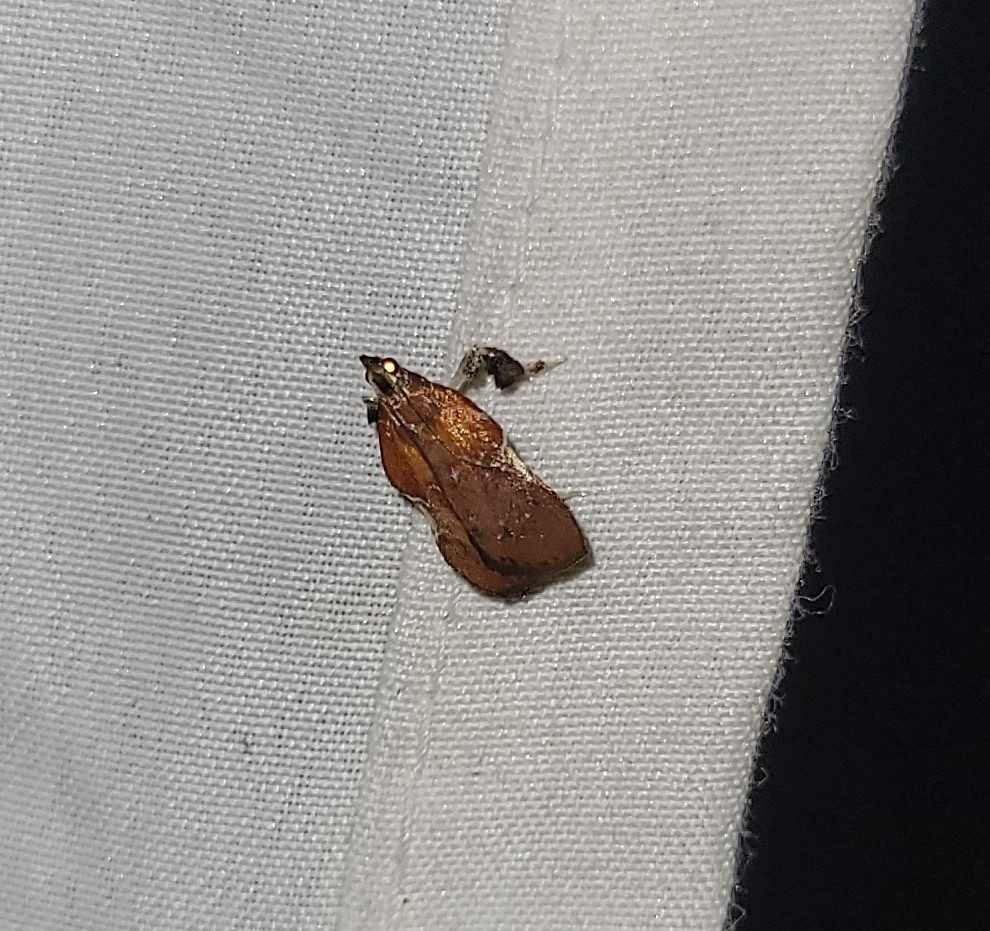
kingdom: Animalia
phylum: Arthropoda
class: Insecta
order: Lepidoptera
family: Pyralidae
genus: Galasa
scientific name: Galasa nigrinodis
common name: Boxwood leaftier moth
